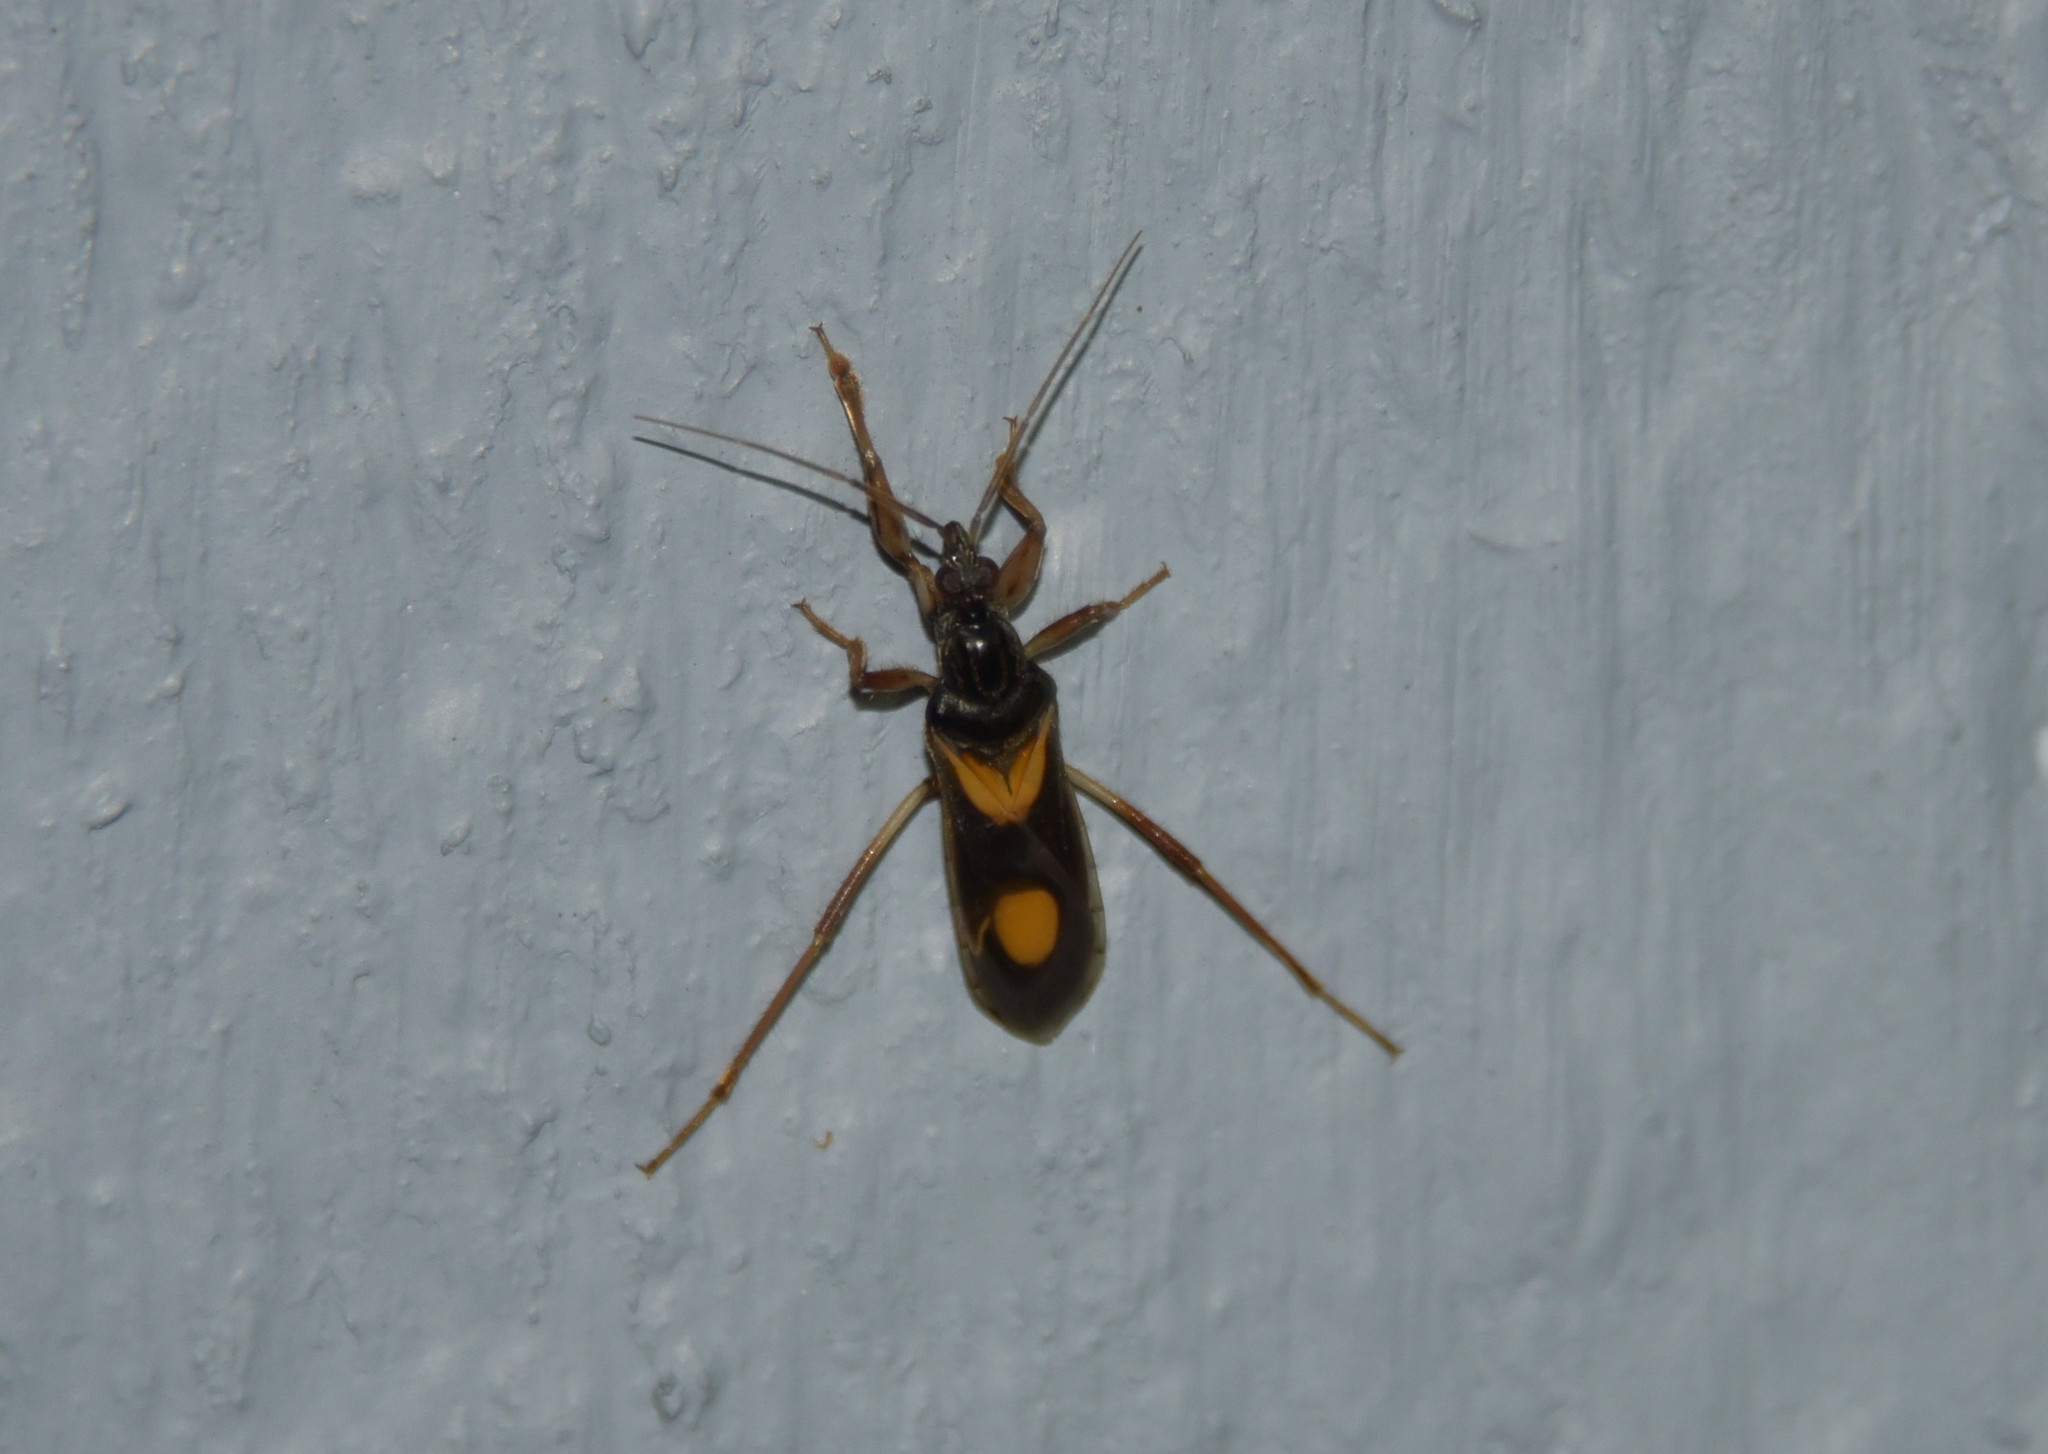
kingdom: Animalia
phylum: Arthropoda
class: Insecta
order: Hemiptera
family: Reduviidae
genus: Rasahus
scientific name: Rasahus hamatus
